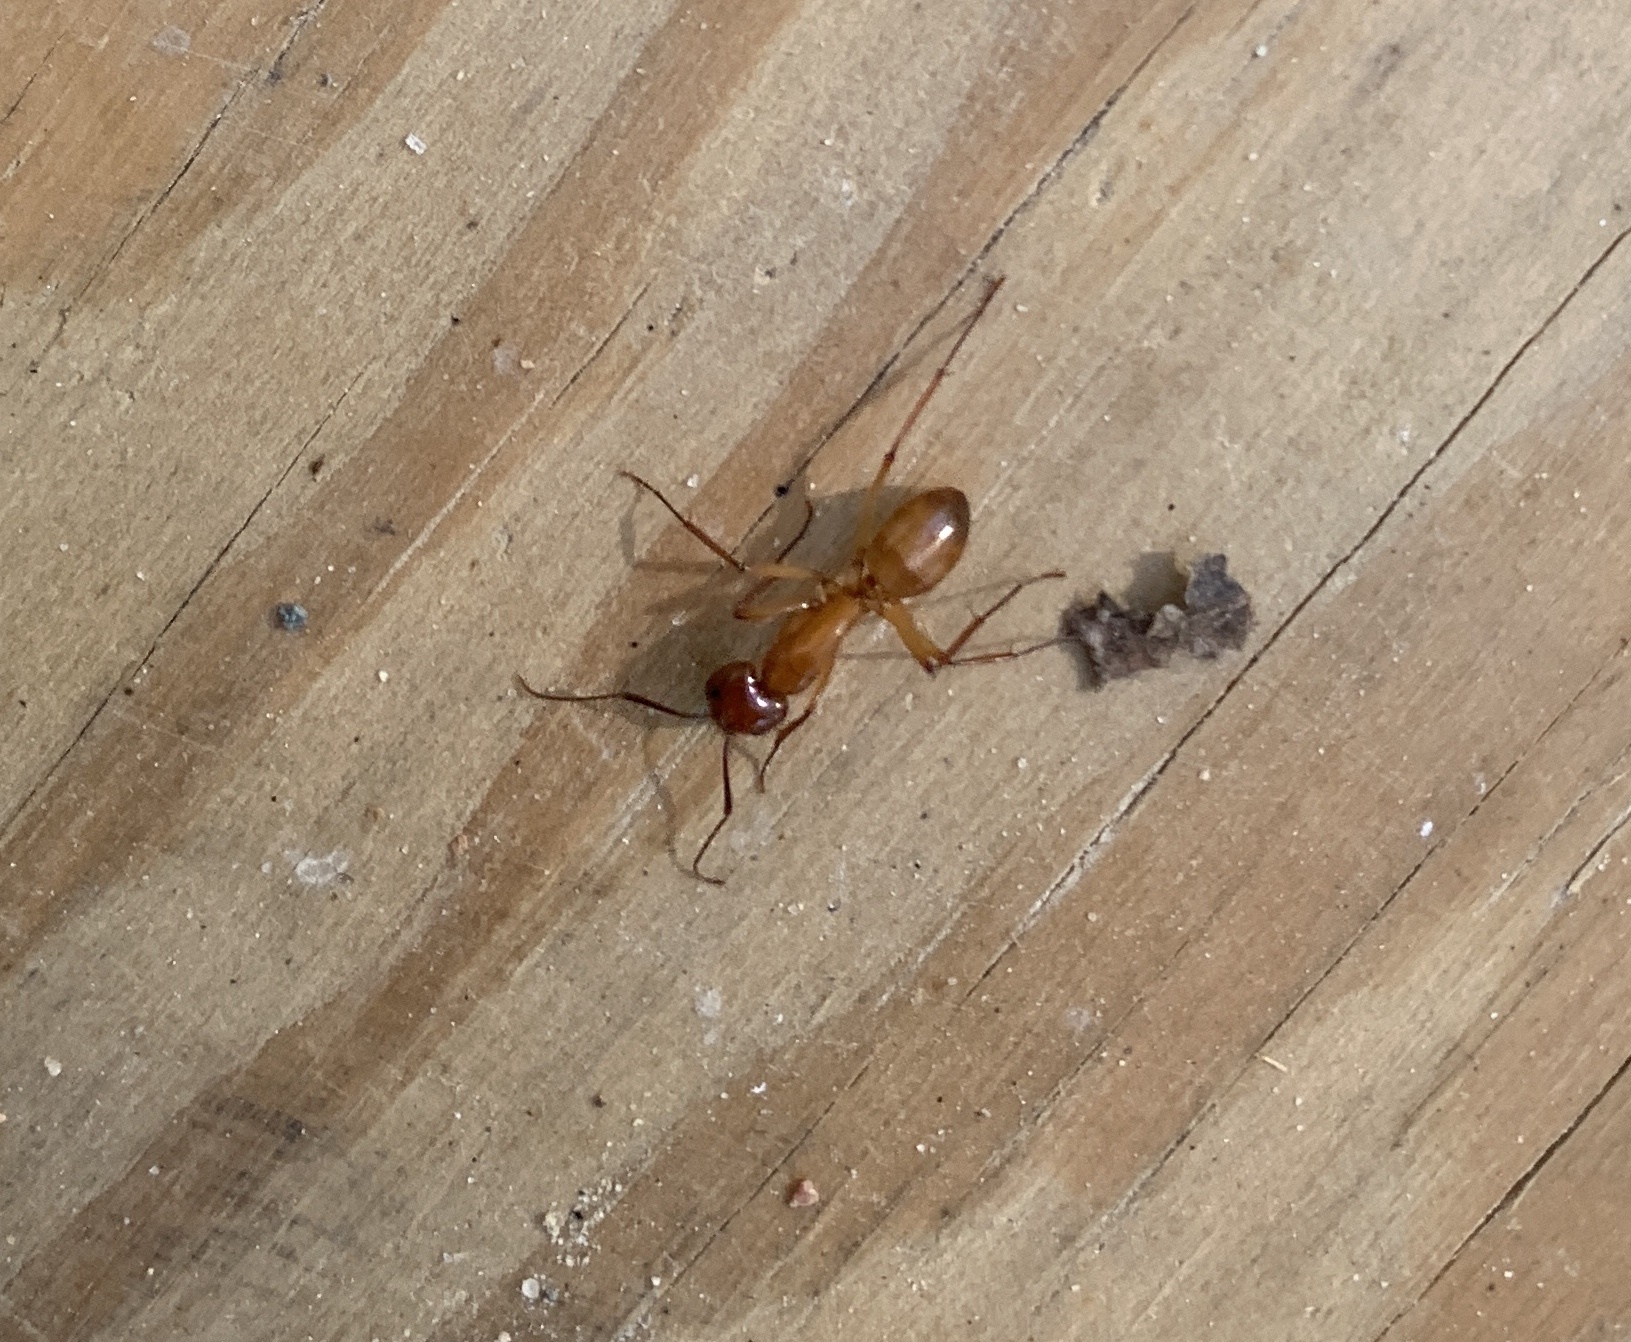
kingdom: Animalia
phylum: Arthropoda
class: Insecta
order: Hymenoptera
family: Formicidae
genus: Camponotus
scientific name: Camponotus castaneus
